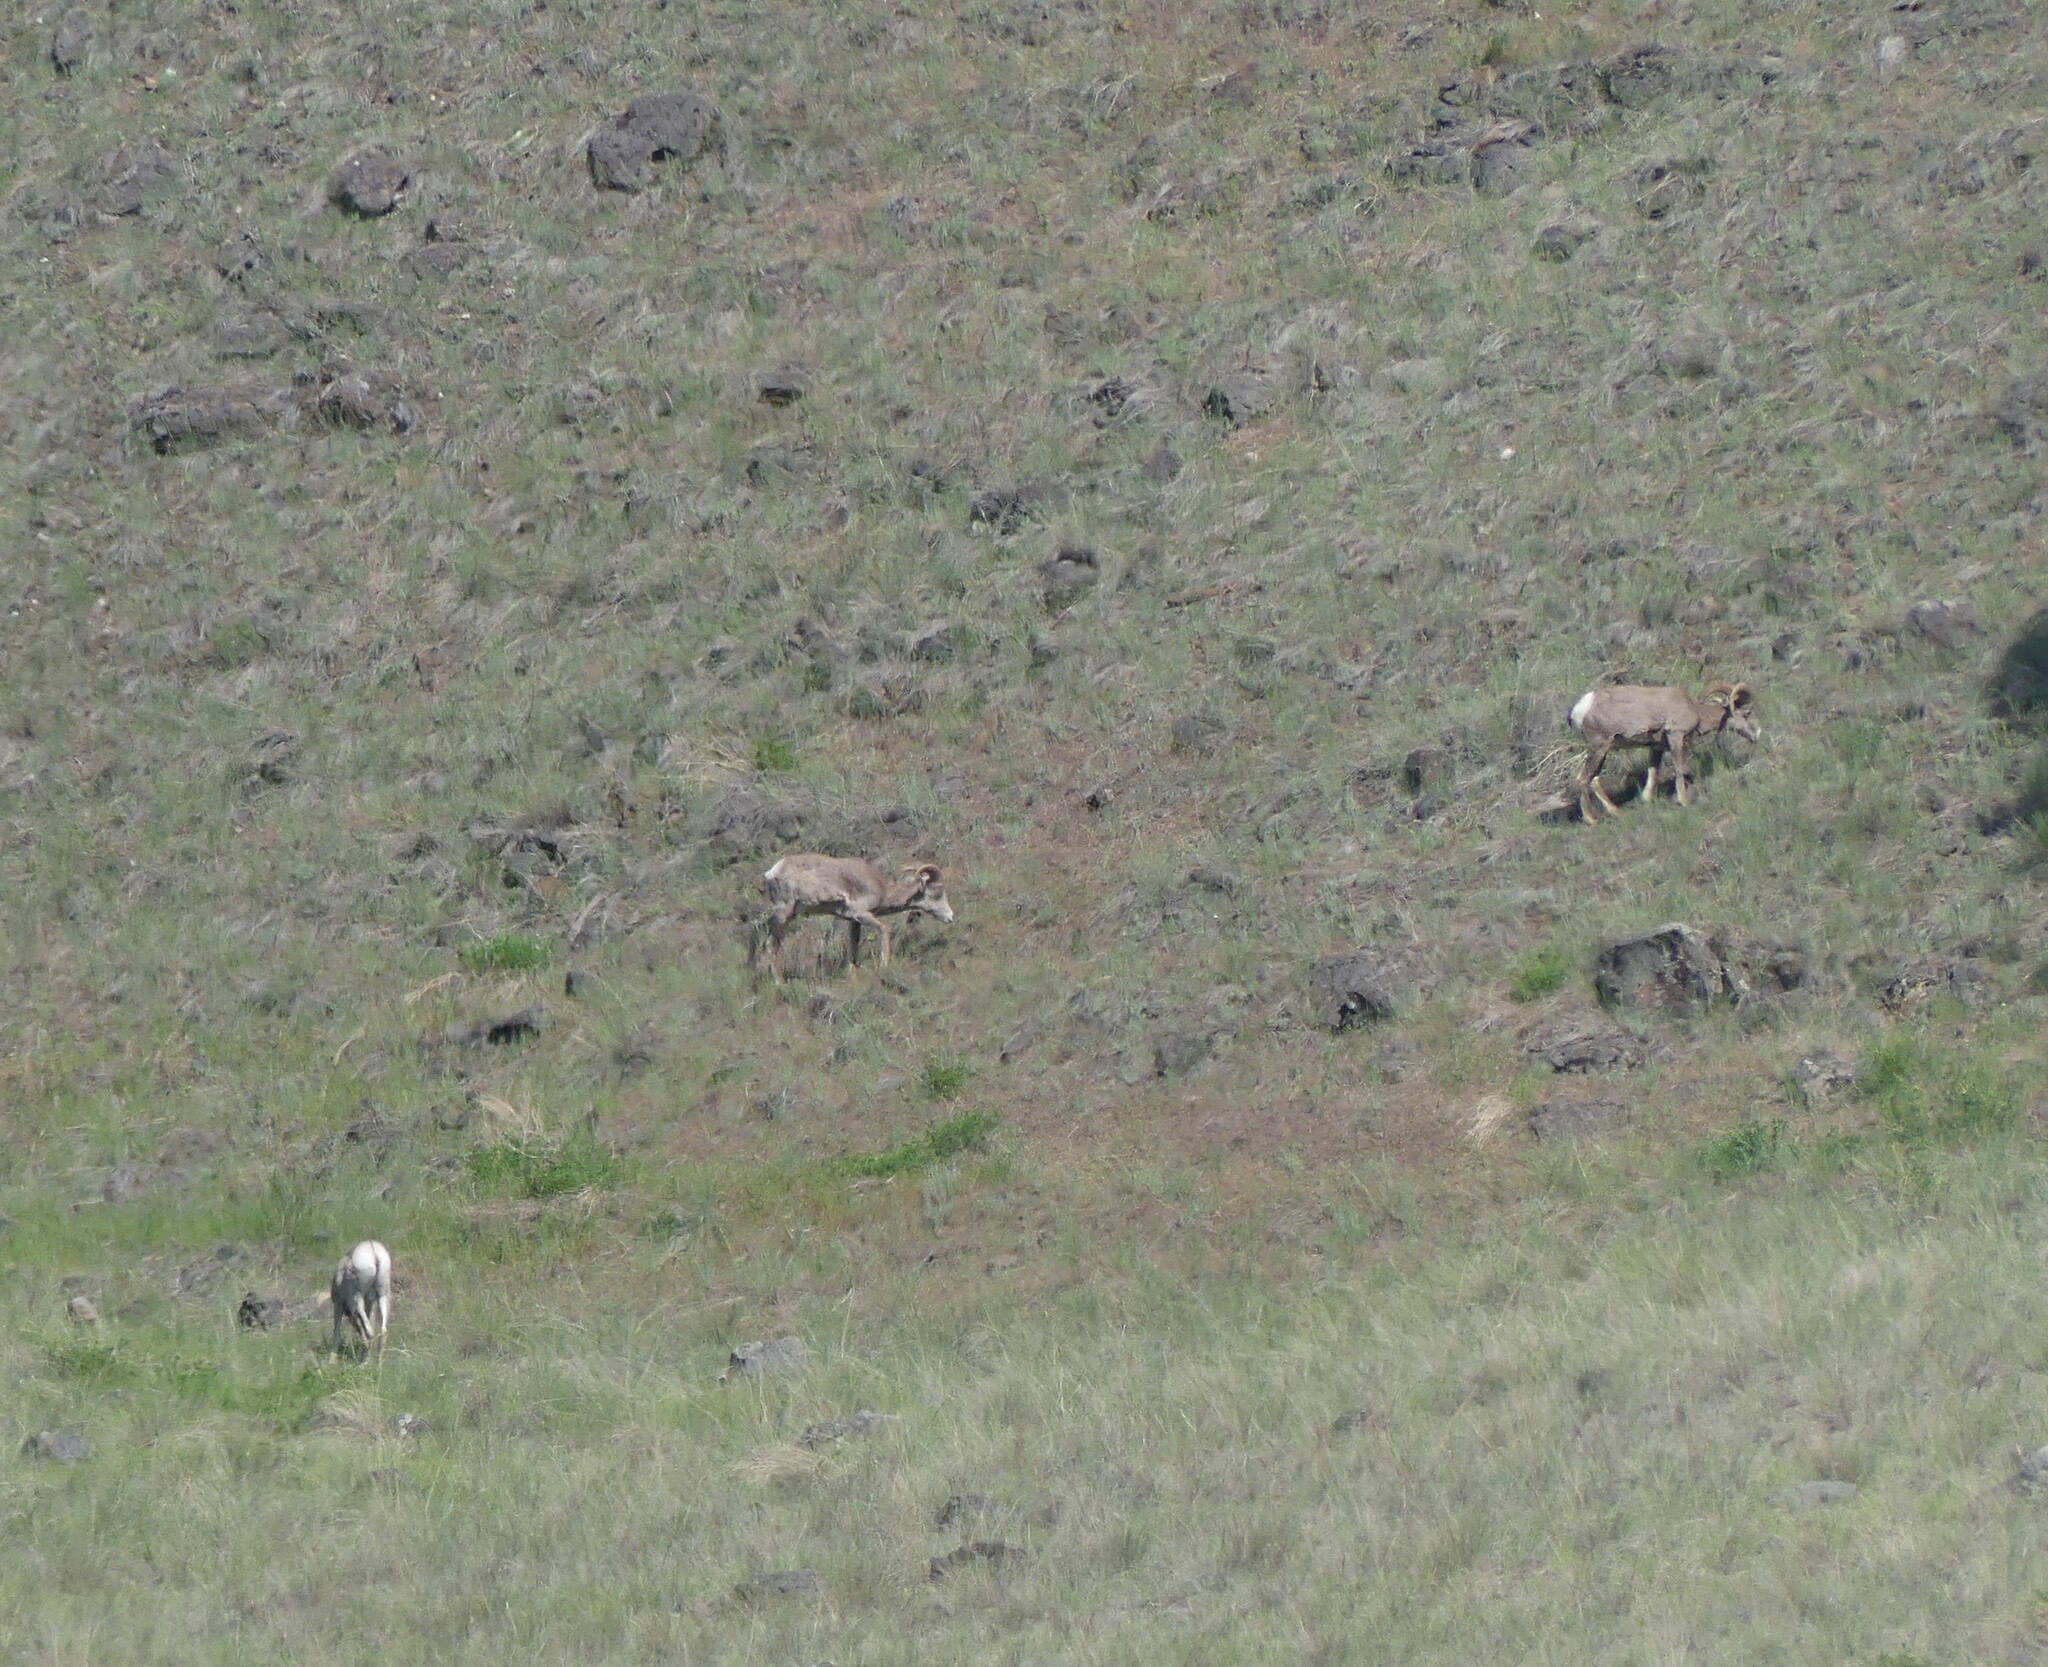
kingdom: Animalia
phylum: Chordata
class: Mammalia
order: Artiodactyla
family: Bovidae
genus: Ovis
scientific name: Ovis canadensis
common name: Bighorn sheep
